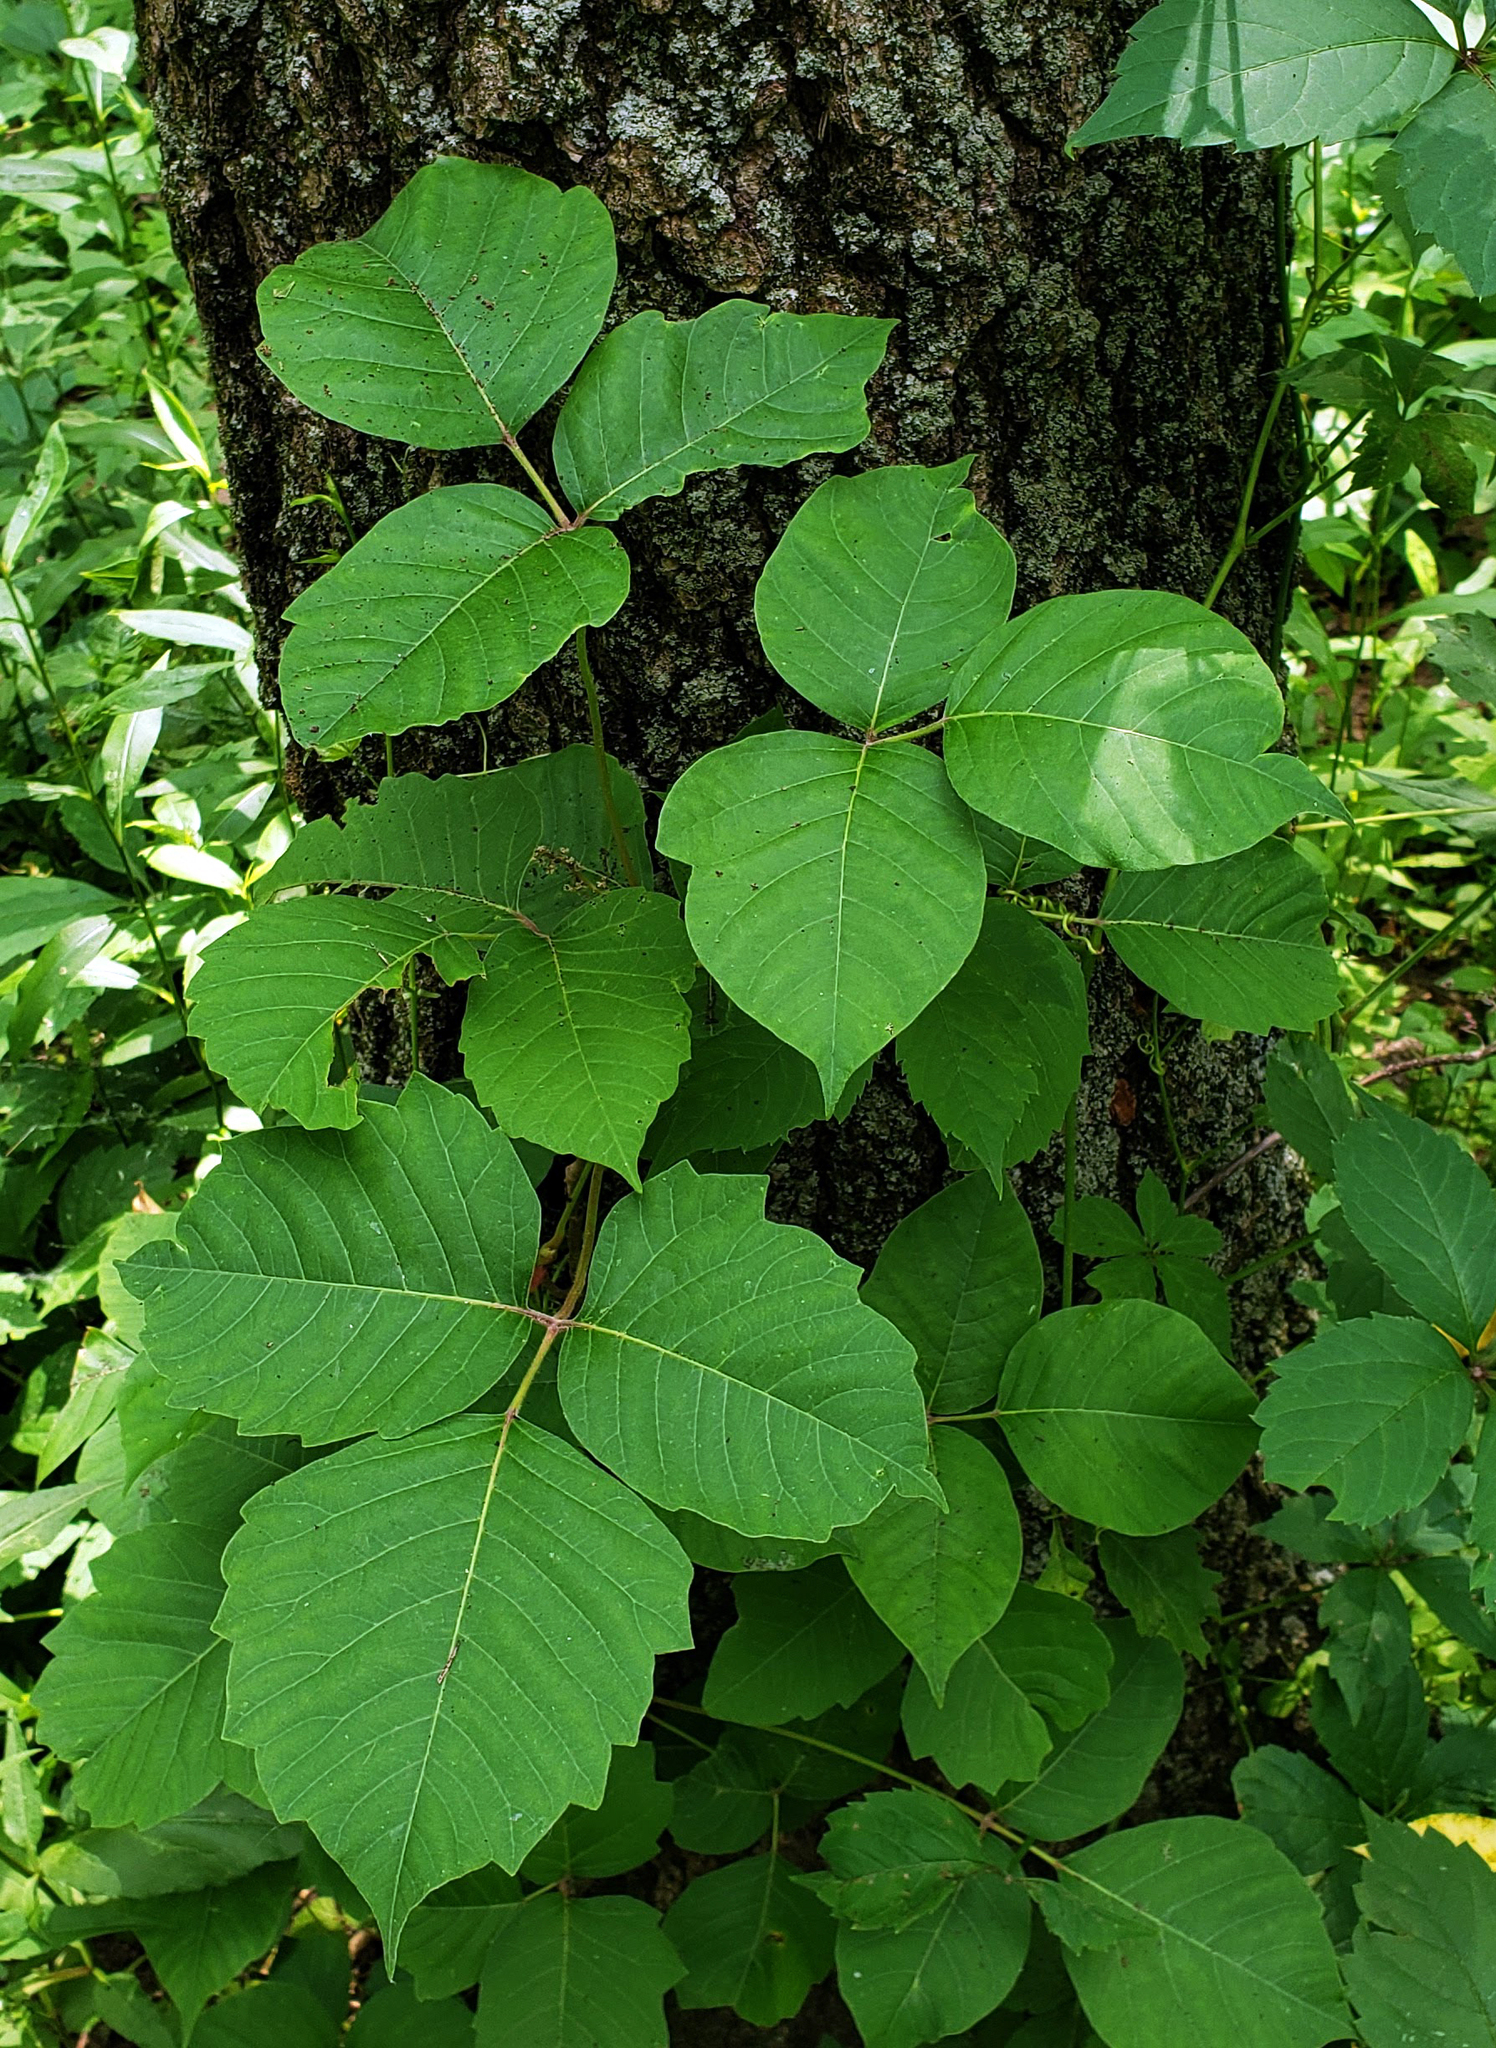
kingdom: Plantae
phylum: Tracheophyta
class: Magnoliopsida
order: Sapindales
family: Anacardiaceae
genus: Toxicodendron
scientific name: Toxicodendron radicans
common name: Poison ivy
